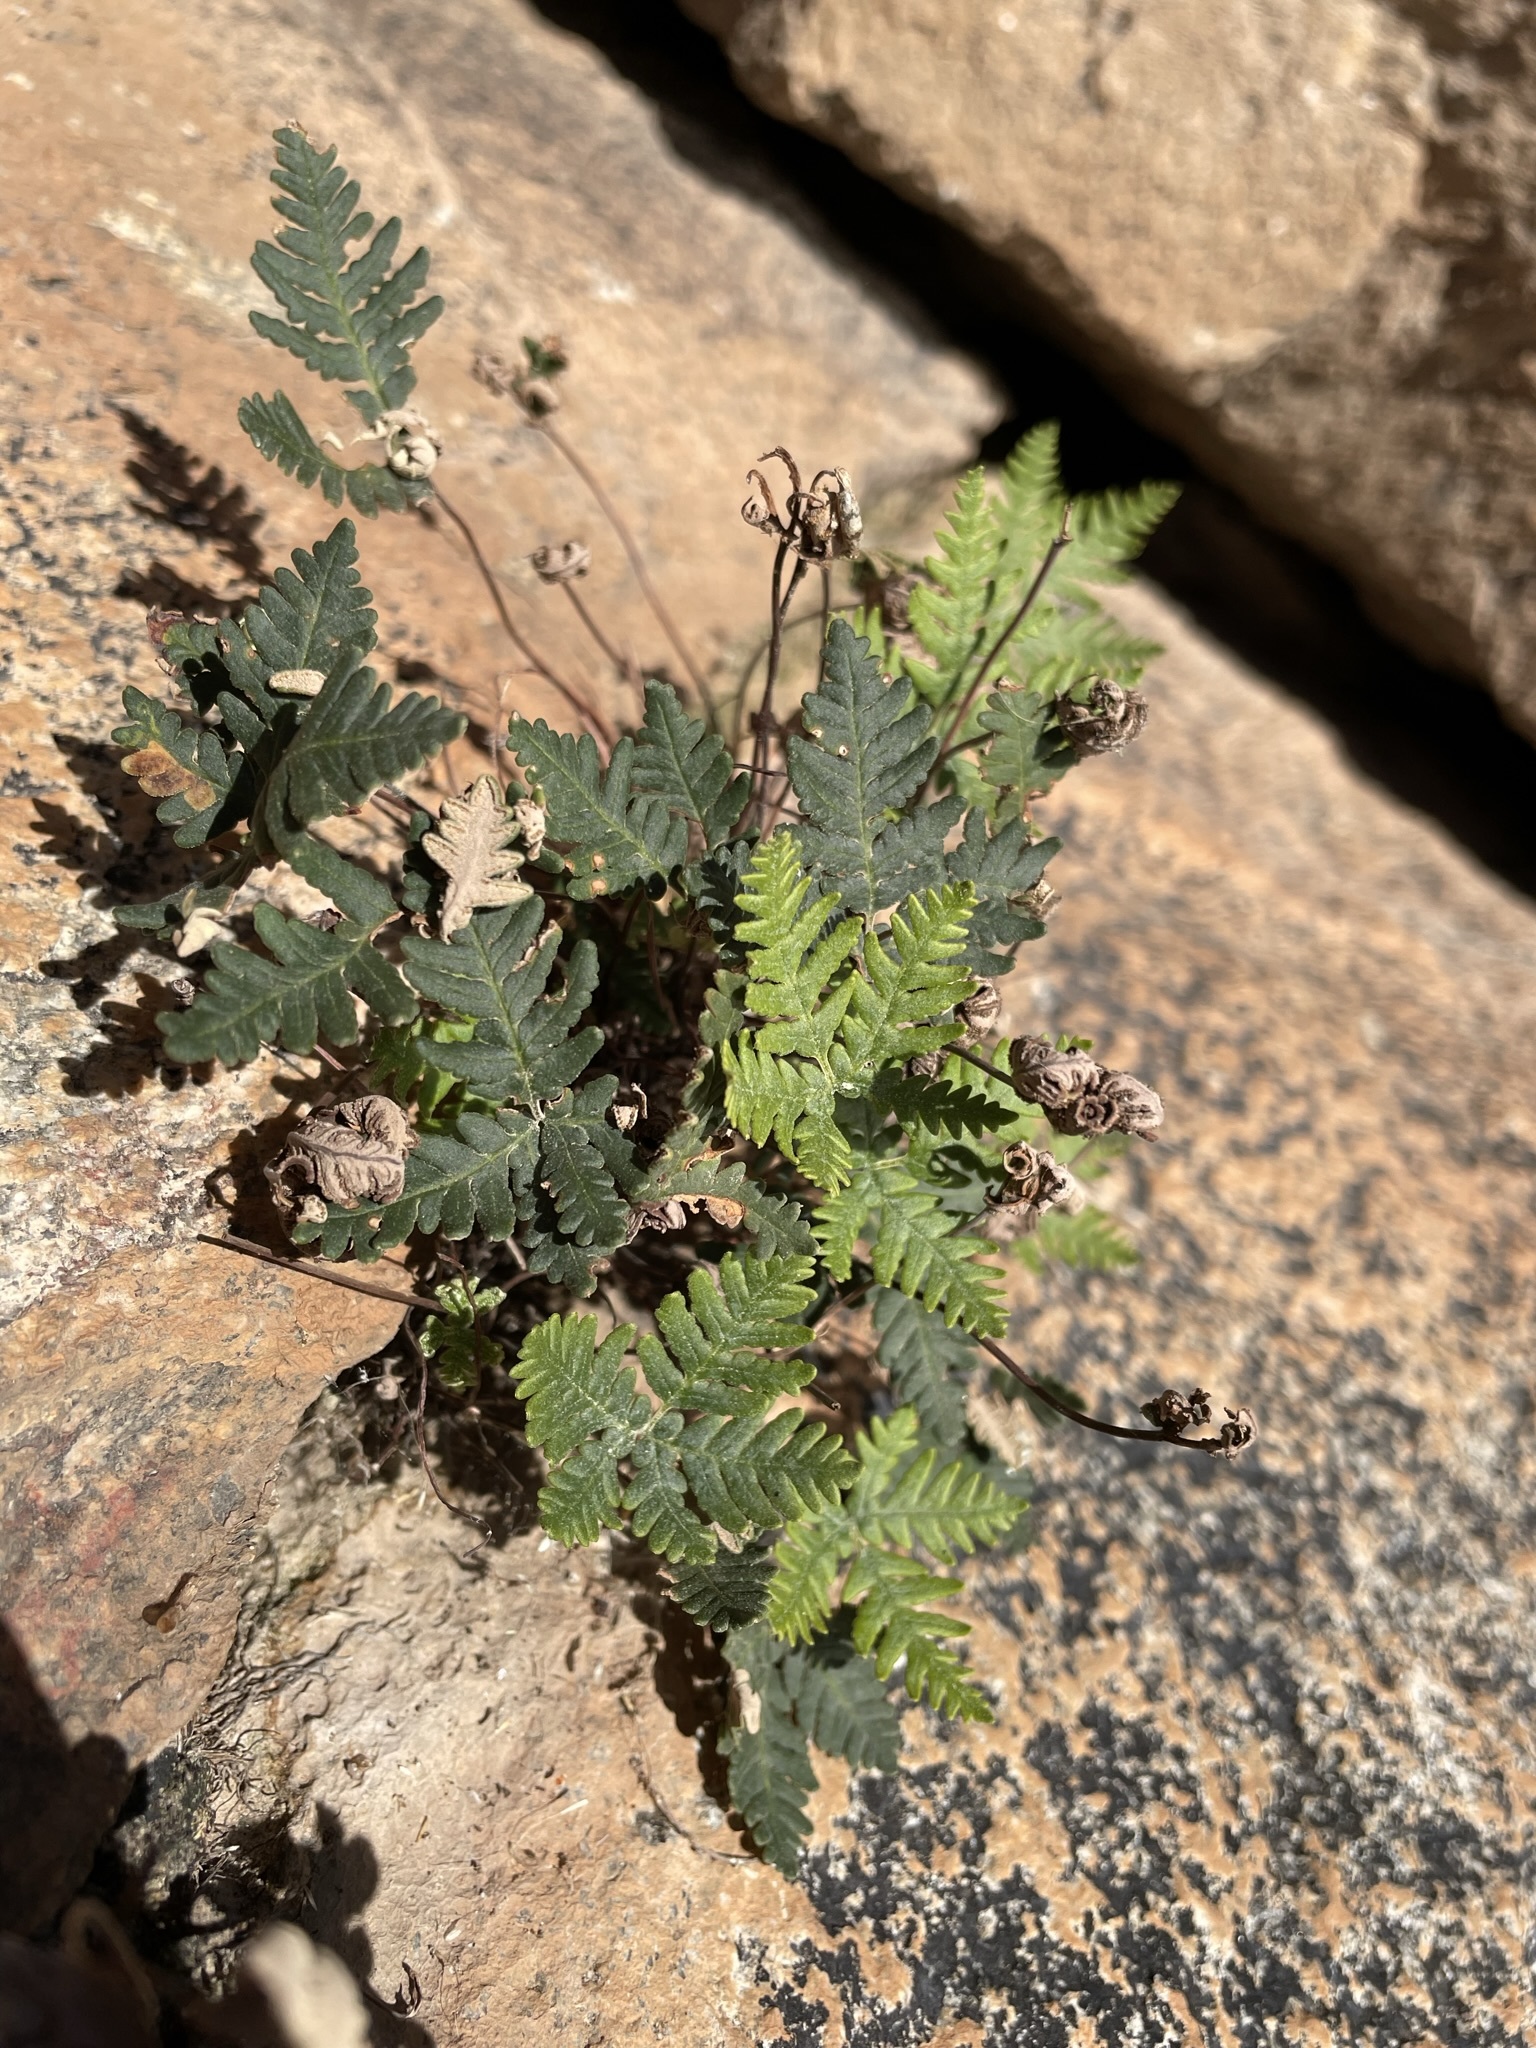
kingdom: Plantae
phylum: Tracheophyta
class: Polypodiopsida
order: Polypodiales
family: Pteridaceae
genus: Notholaena
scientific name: Notholaena standleyi
